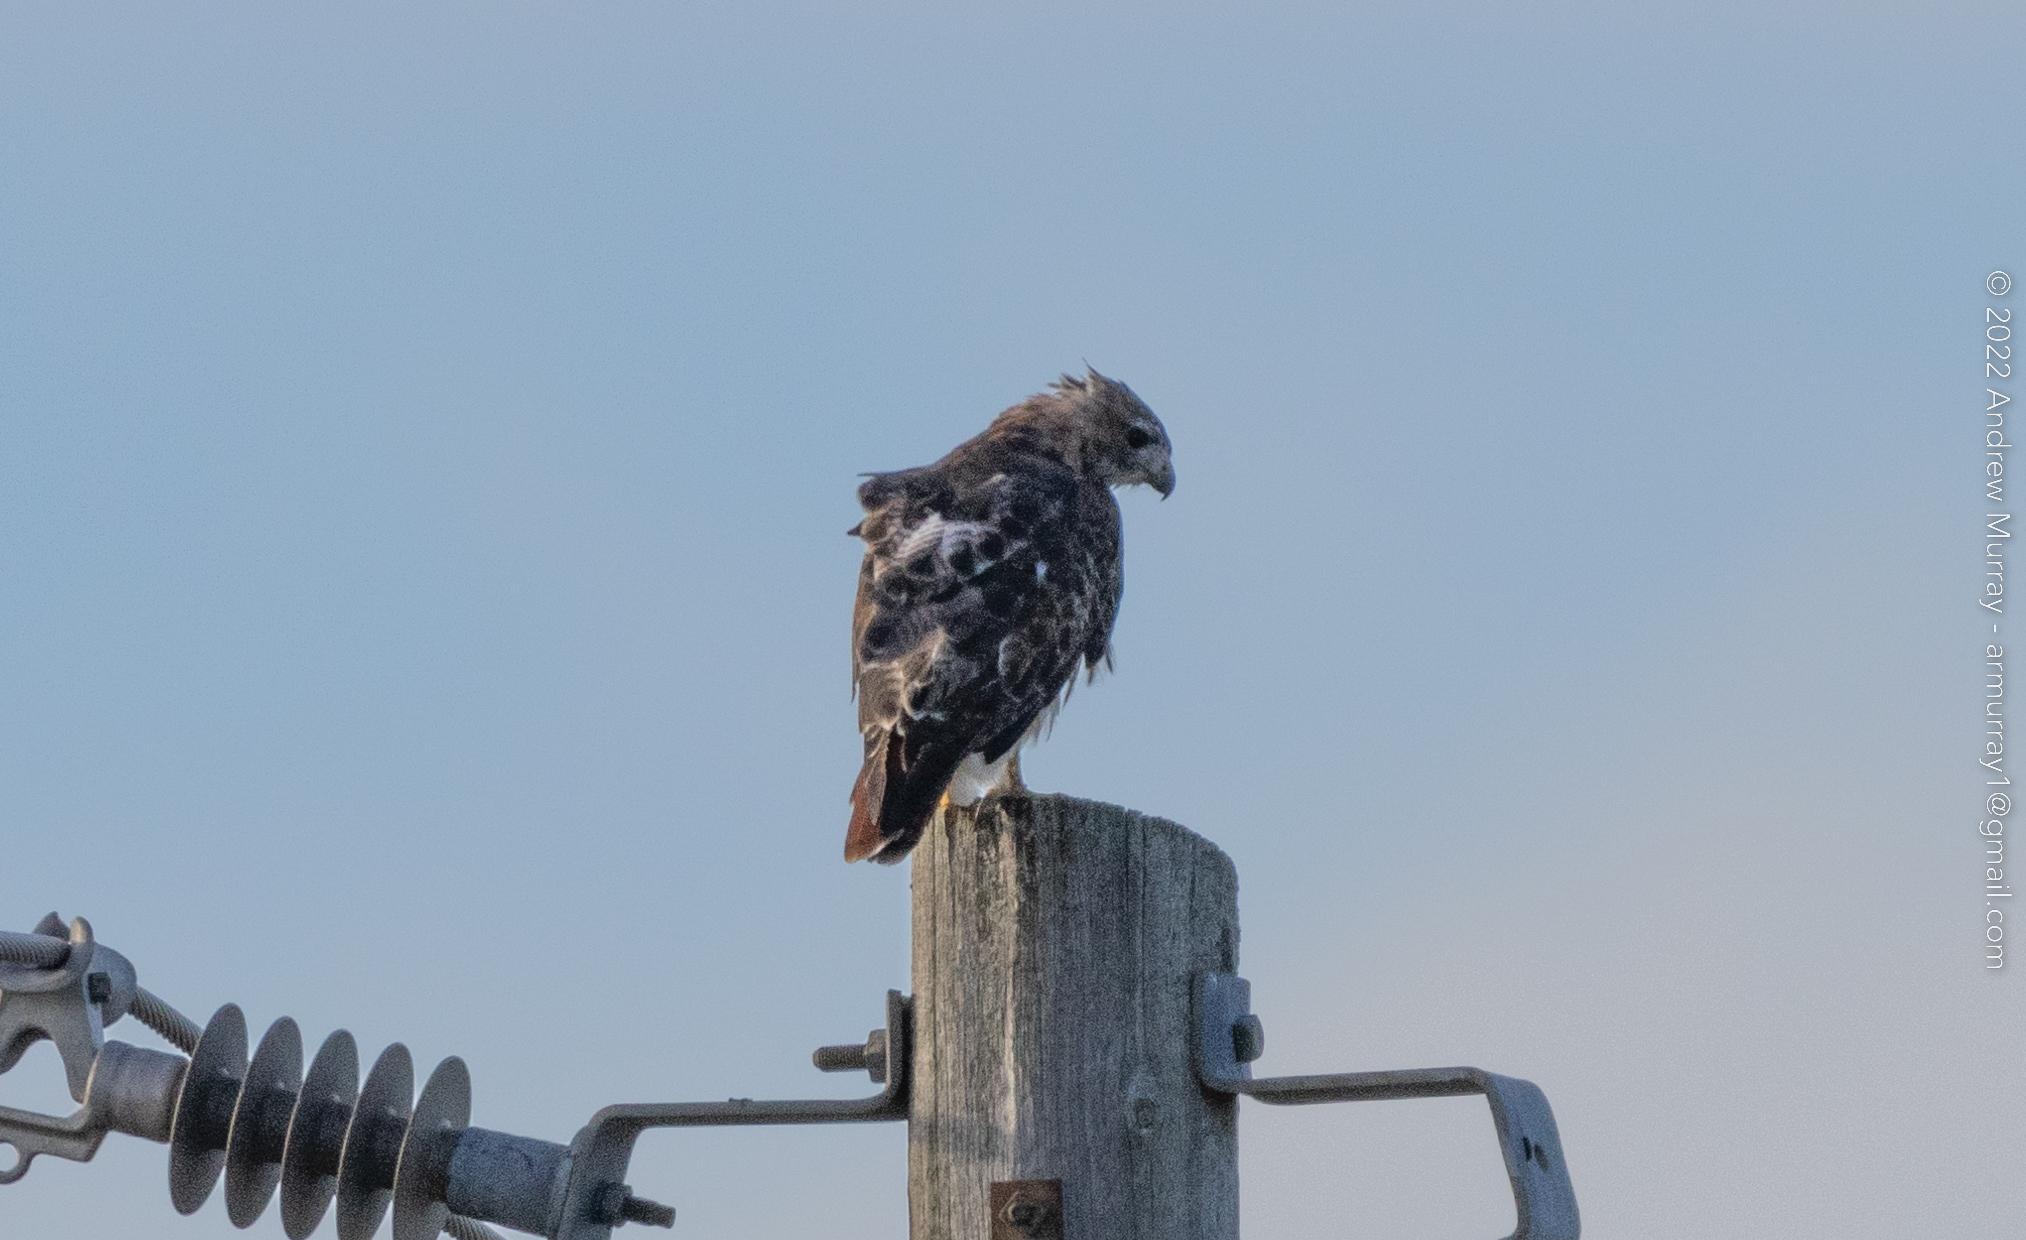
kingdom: Animalia
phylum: Chordata
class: Aves
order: Accipitriformes
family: Accipitridae
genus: Buteo
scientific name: Buteo jamaicensis
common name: Red-tailed hawk
